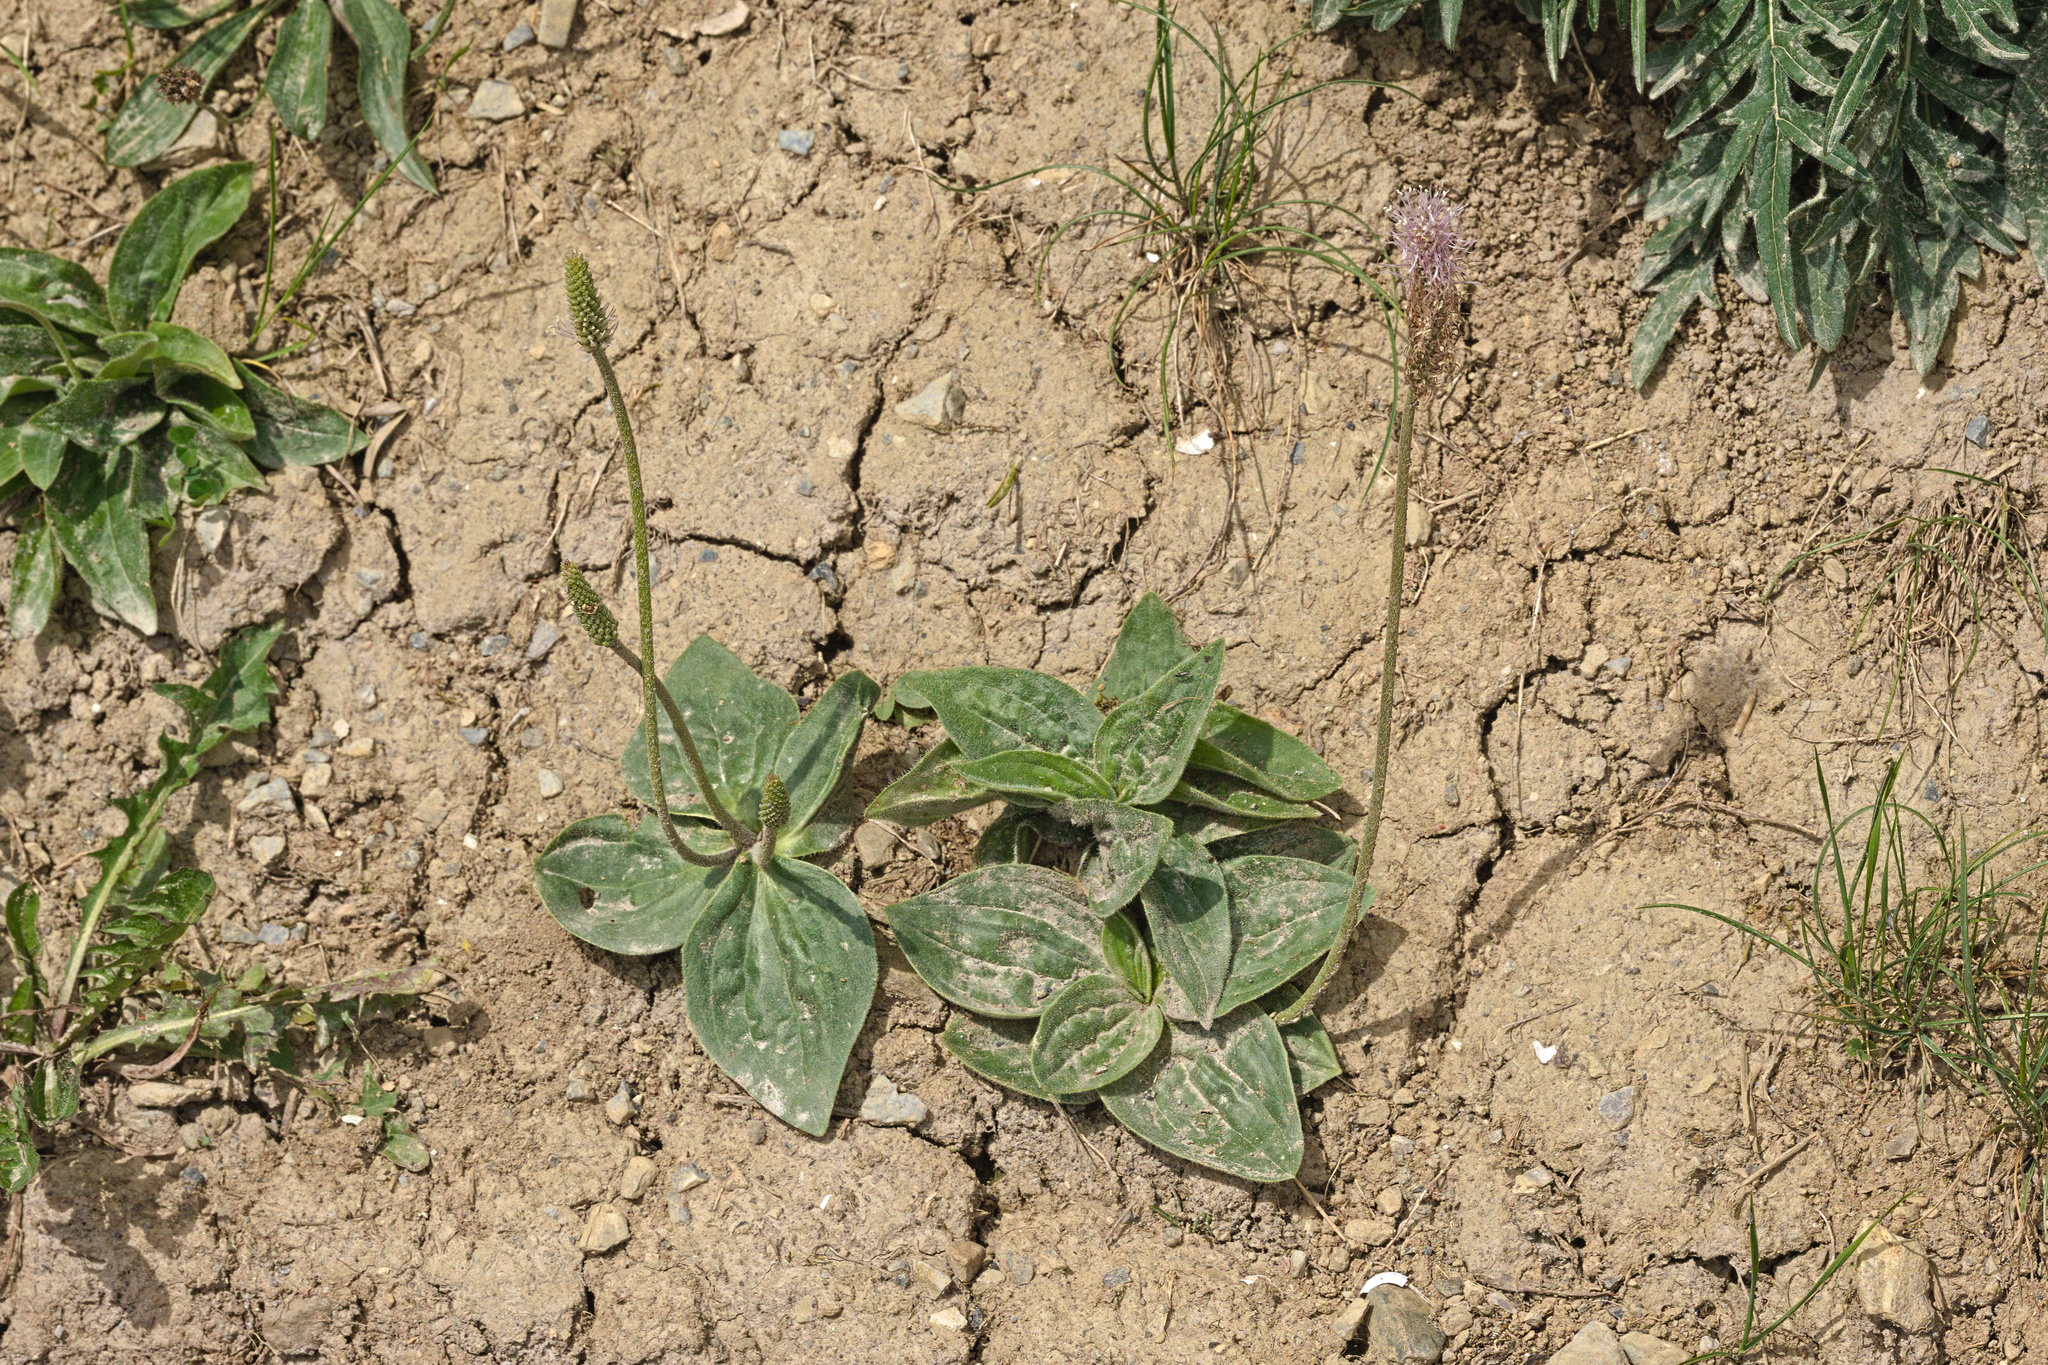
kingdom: Plantae
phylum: Tracheophyta
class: Magnoliopsida
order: Lamiales
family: Plantaginaceae
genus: Plantago
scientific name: Plantago media
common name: Hoary plantain
